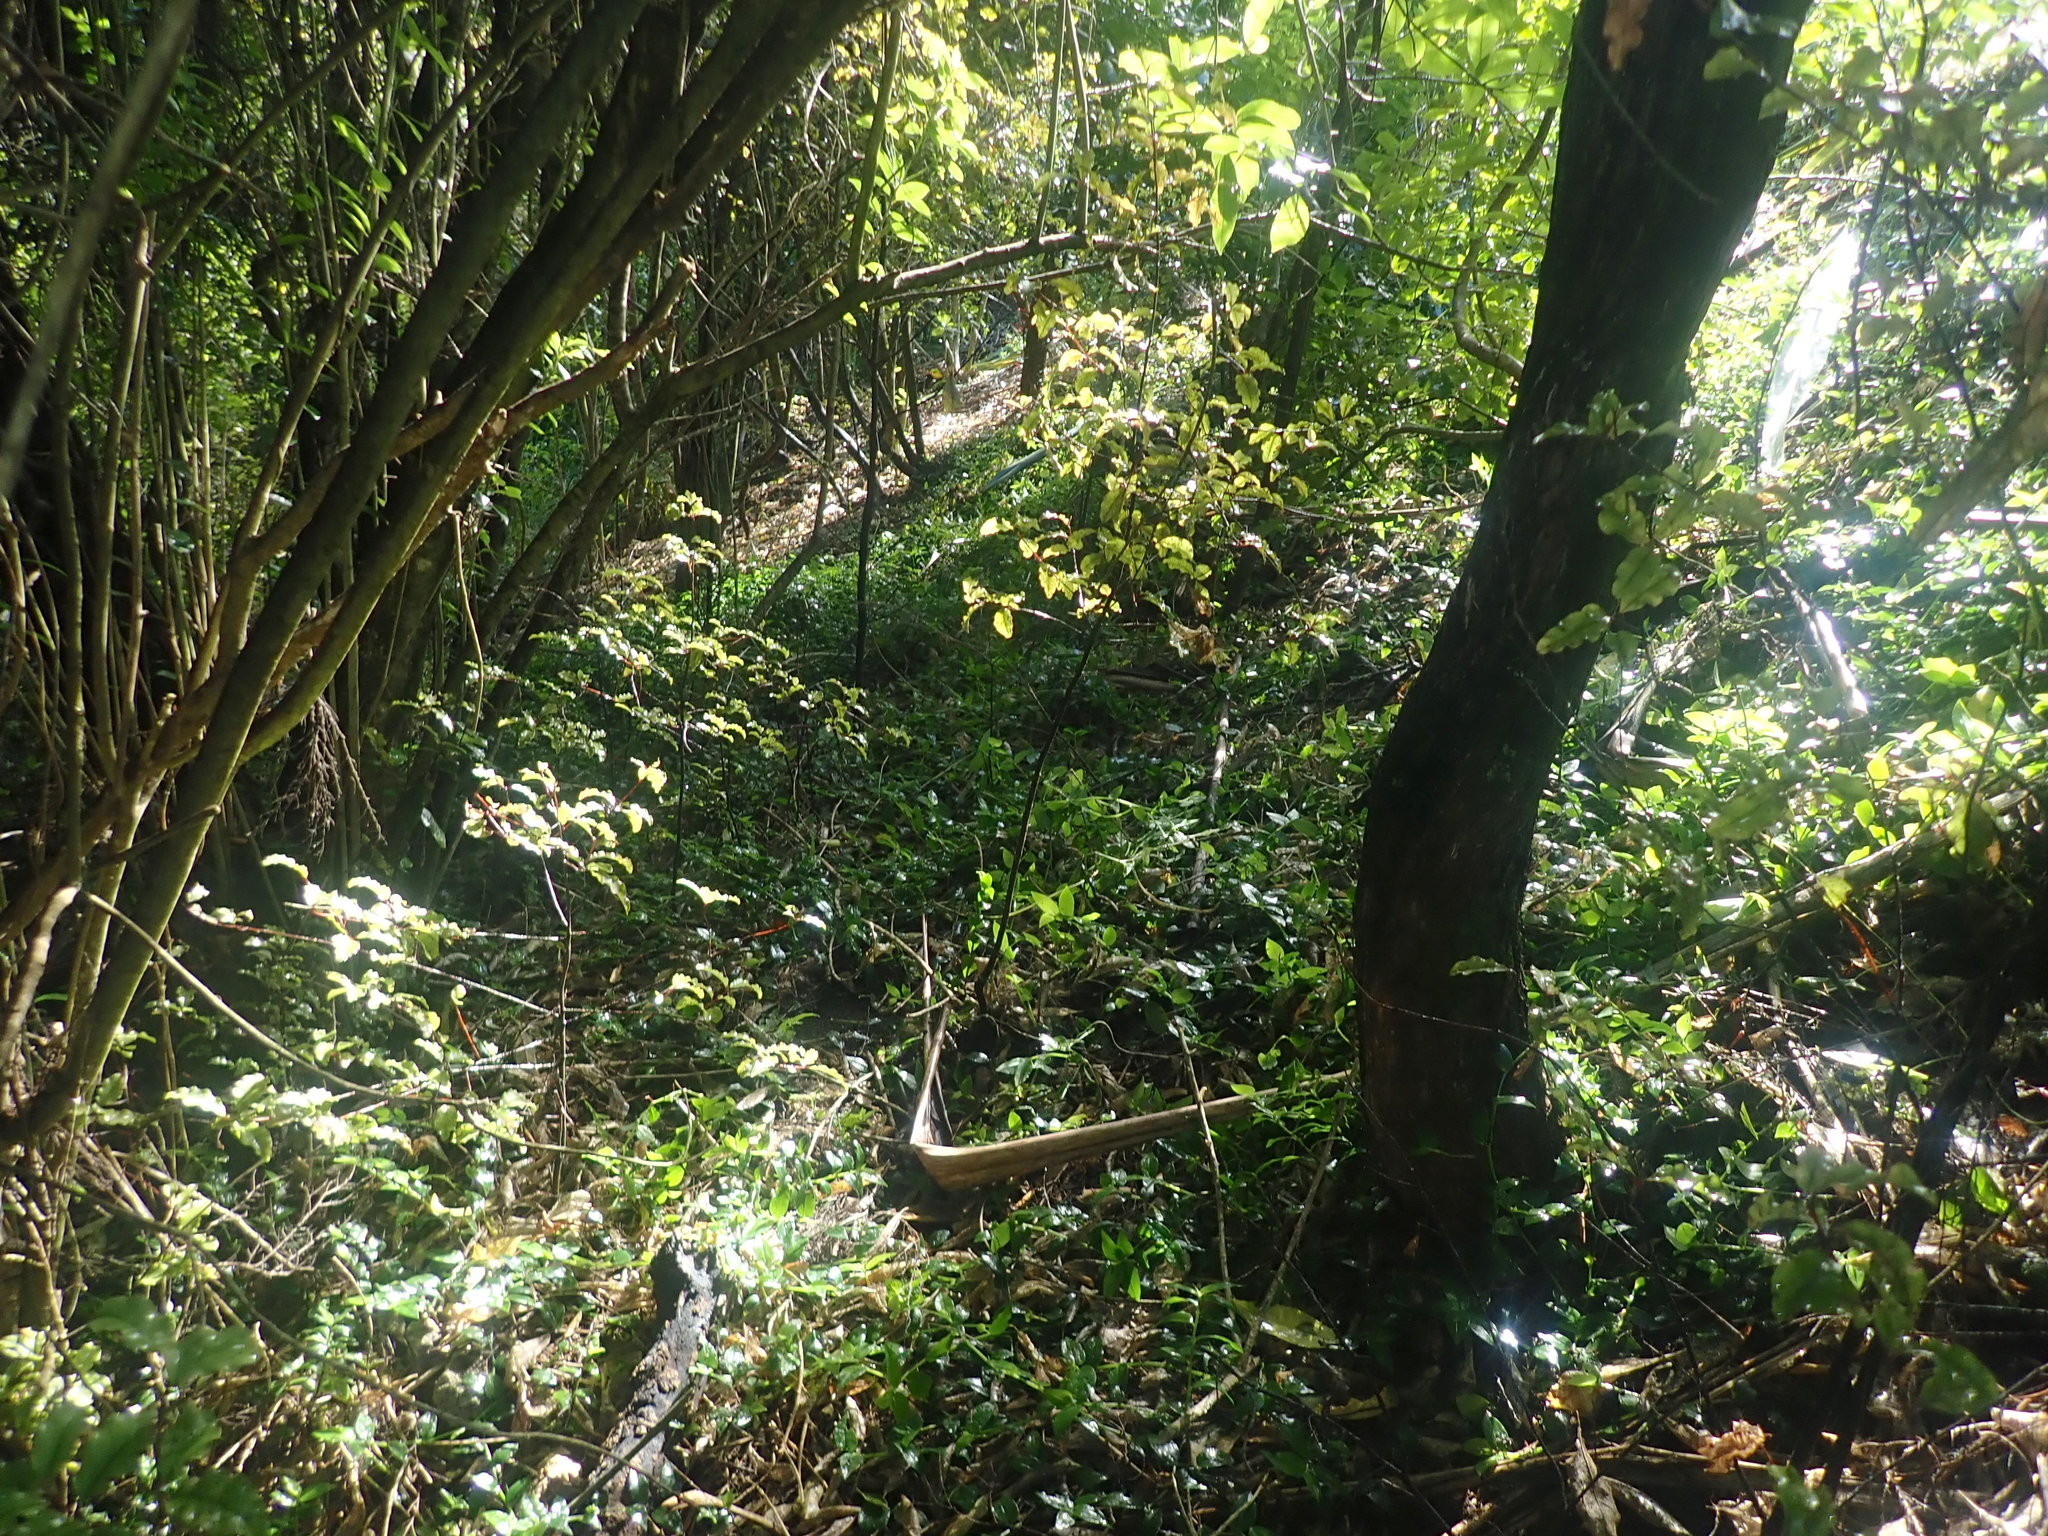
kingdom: Plantae
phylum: Tracheophyta
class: Magnoliopsida
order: Ericales
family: Primulaceae
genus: Myrsine
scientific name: Myrsine australis
